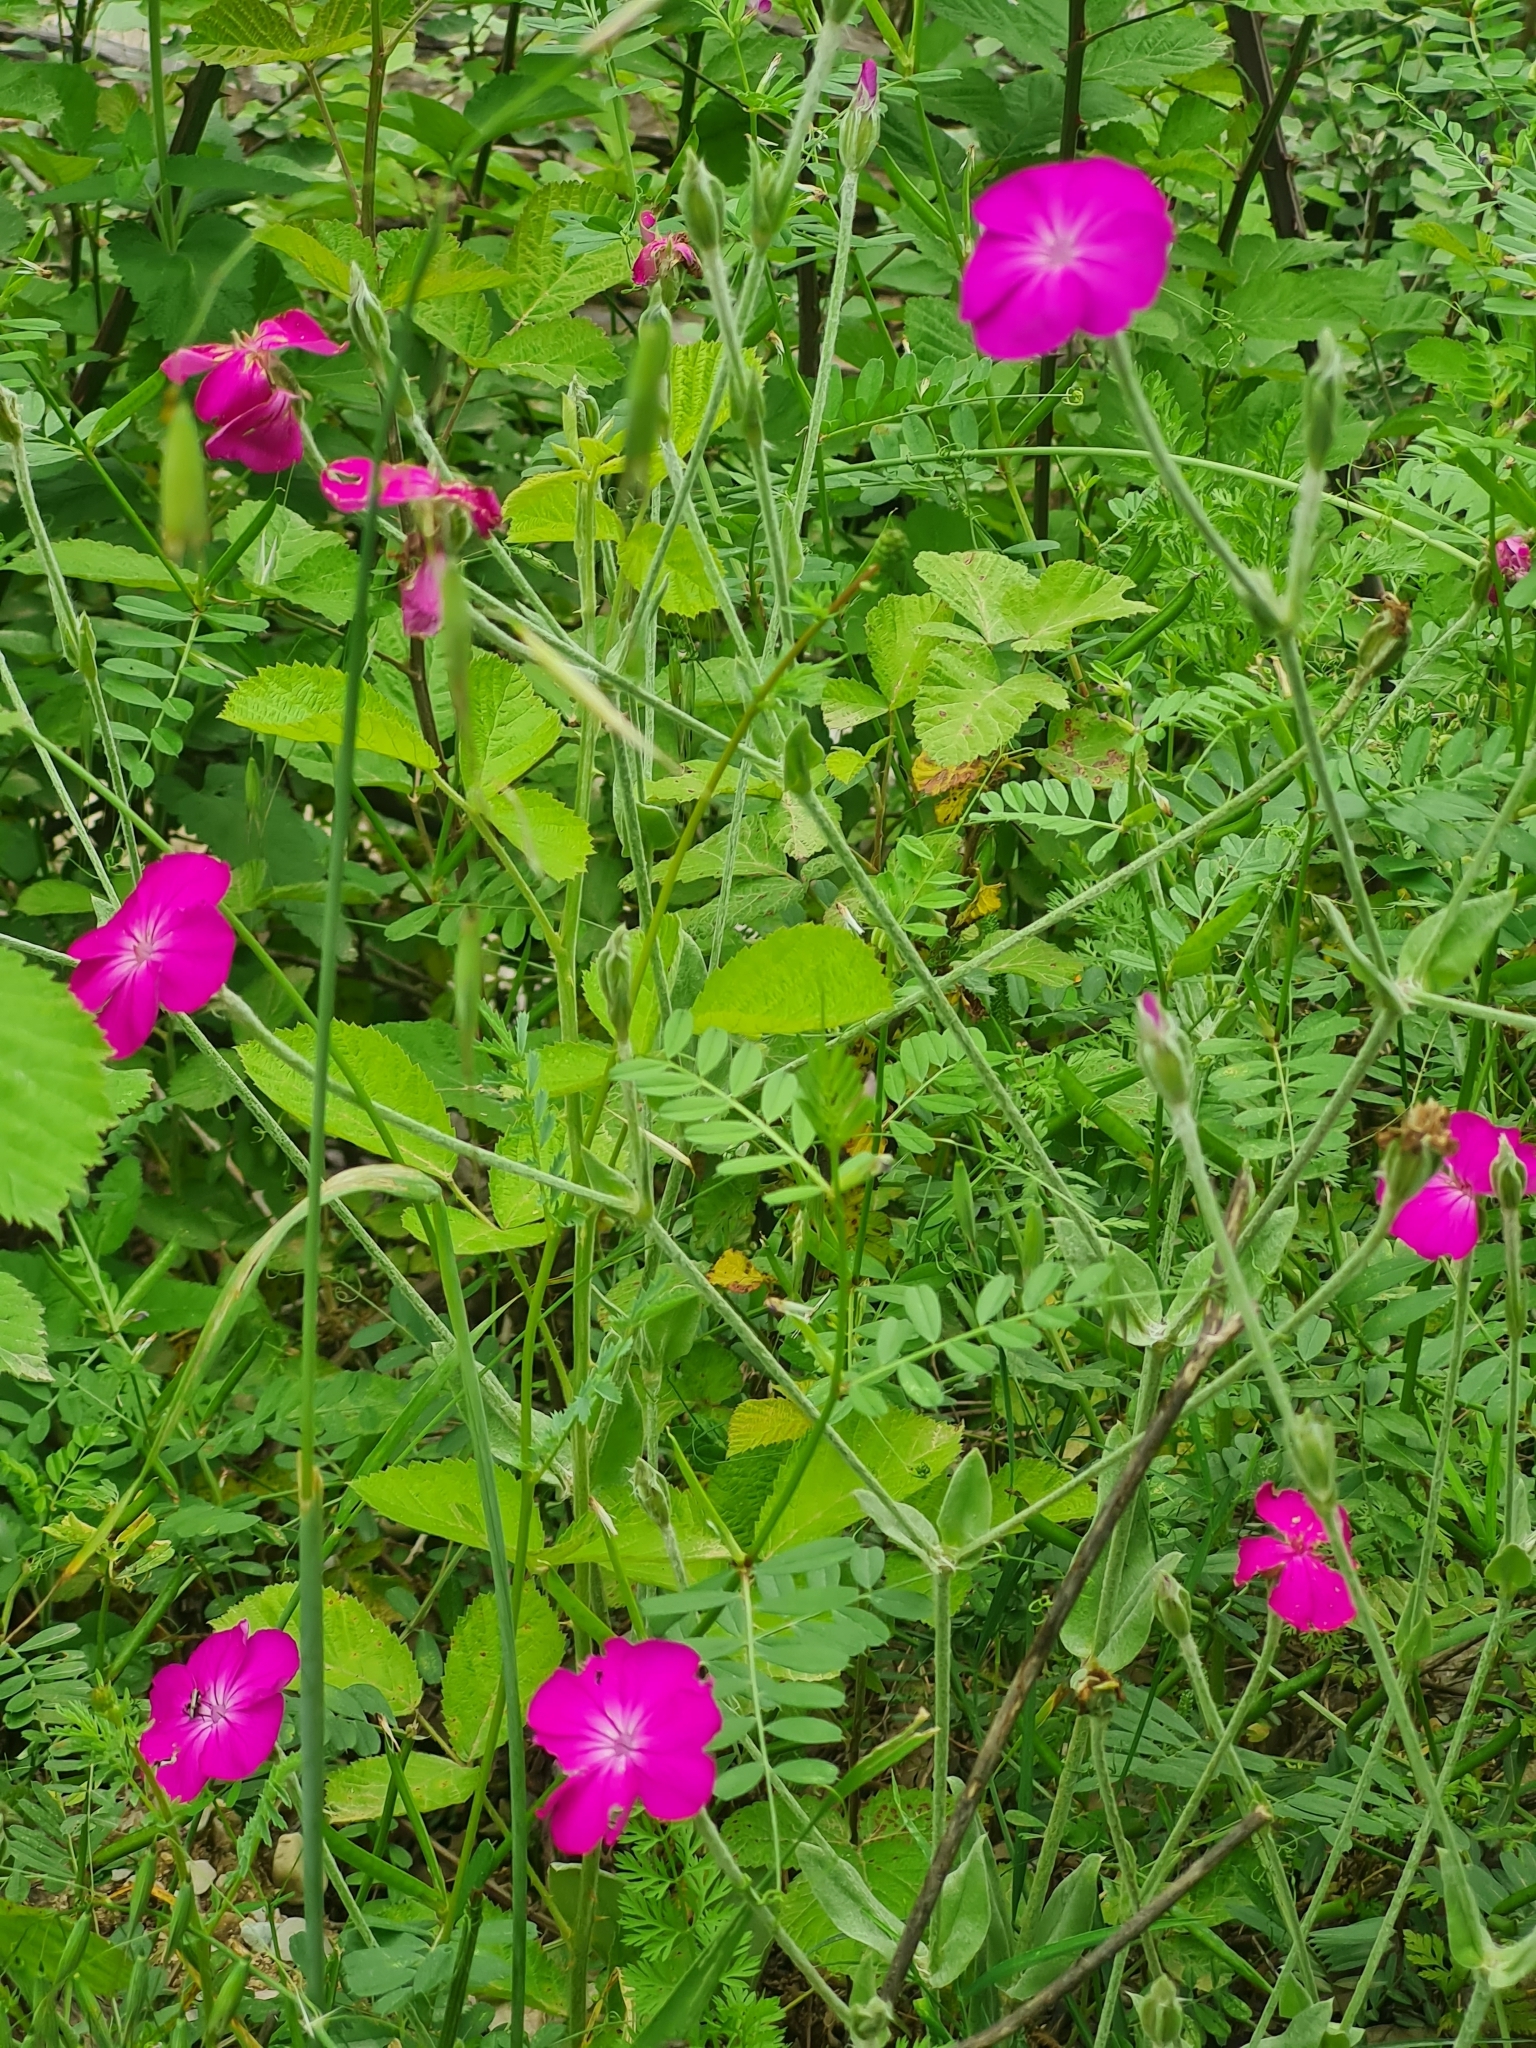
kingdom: Plantae
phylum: Tracheophyta
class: Magnoliopsida
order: Caryophyllales
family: Caryophyllaceae
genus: Silene
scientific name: Silene coronaria
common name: Rose campion
